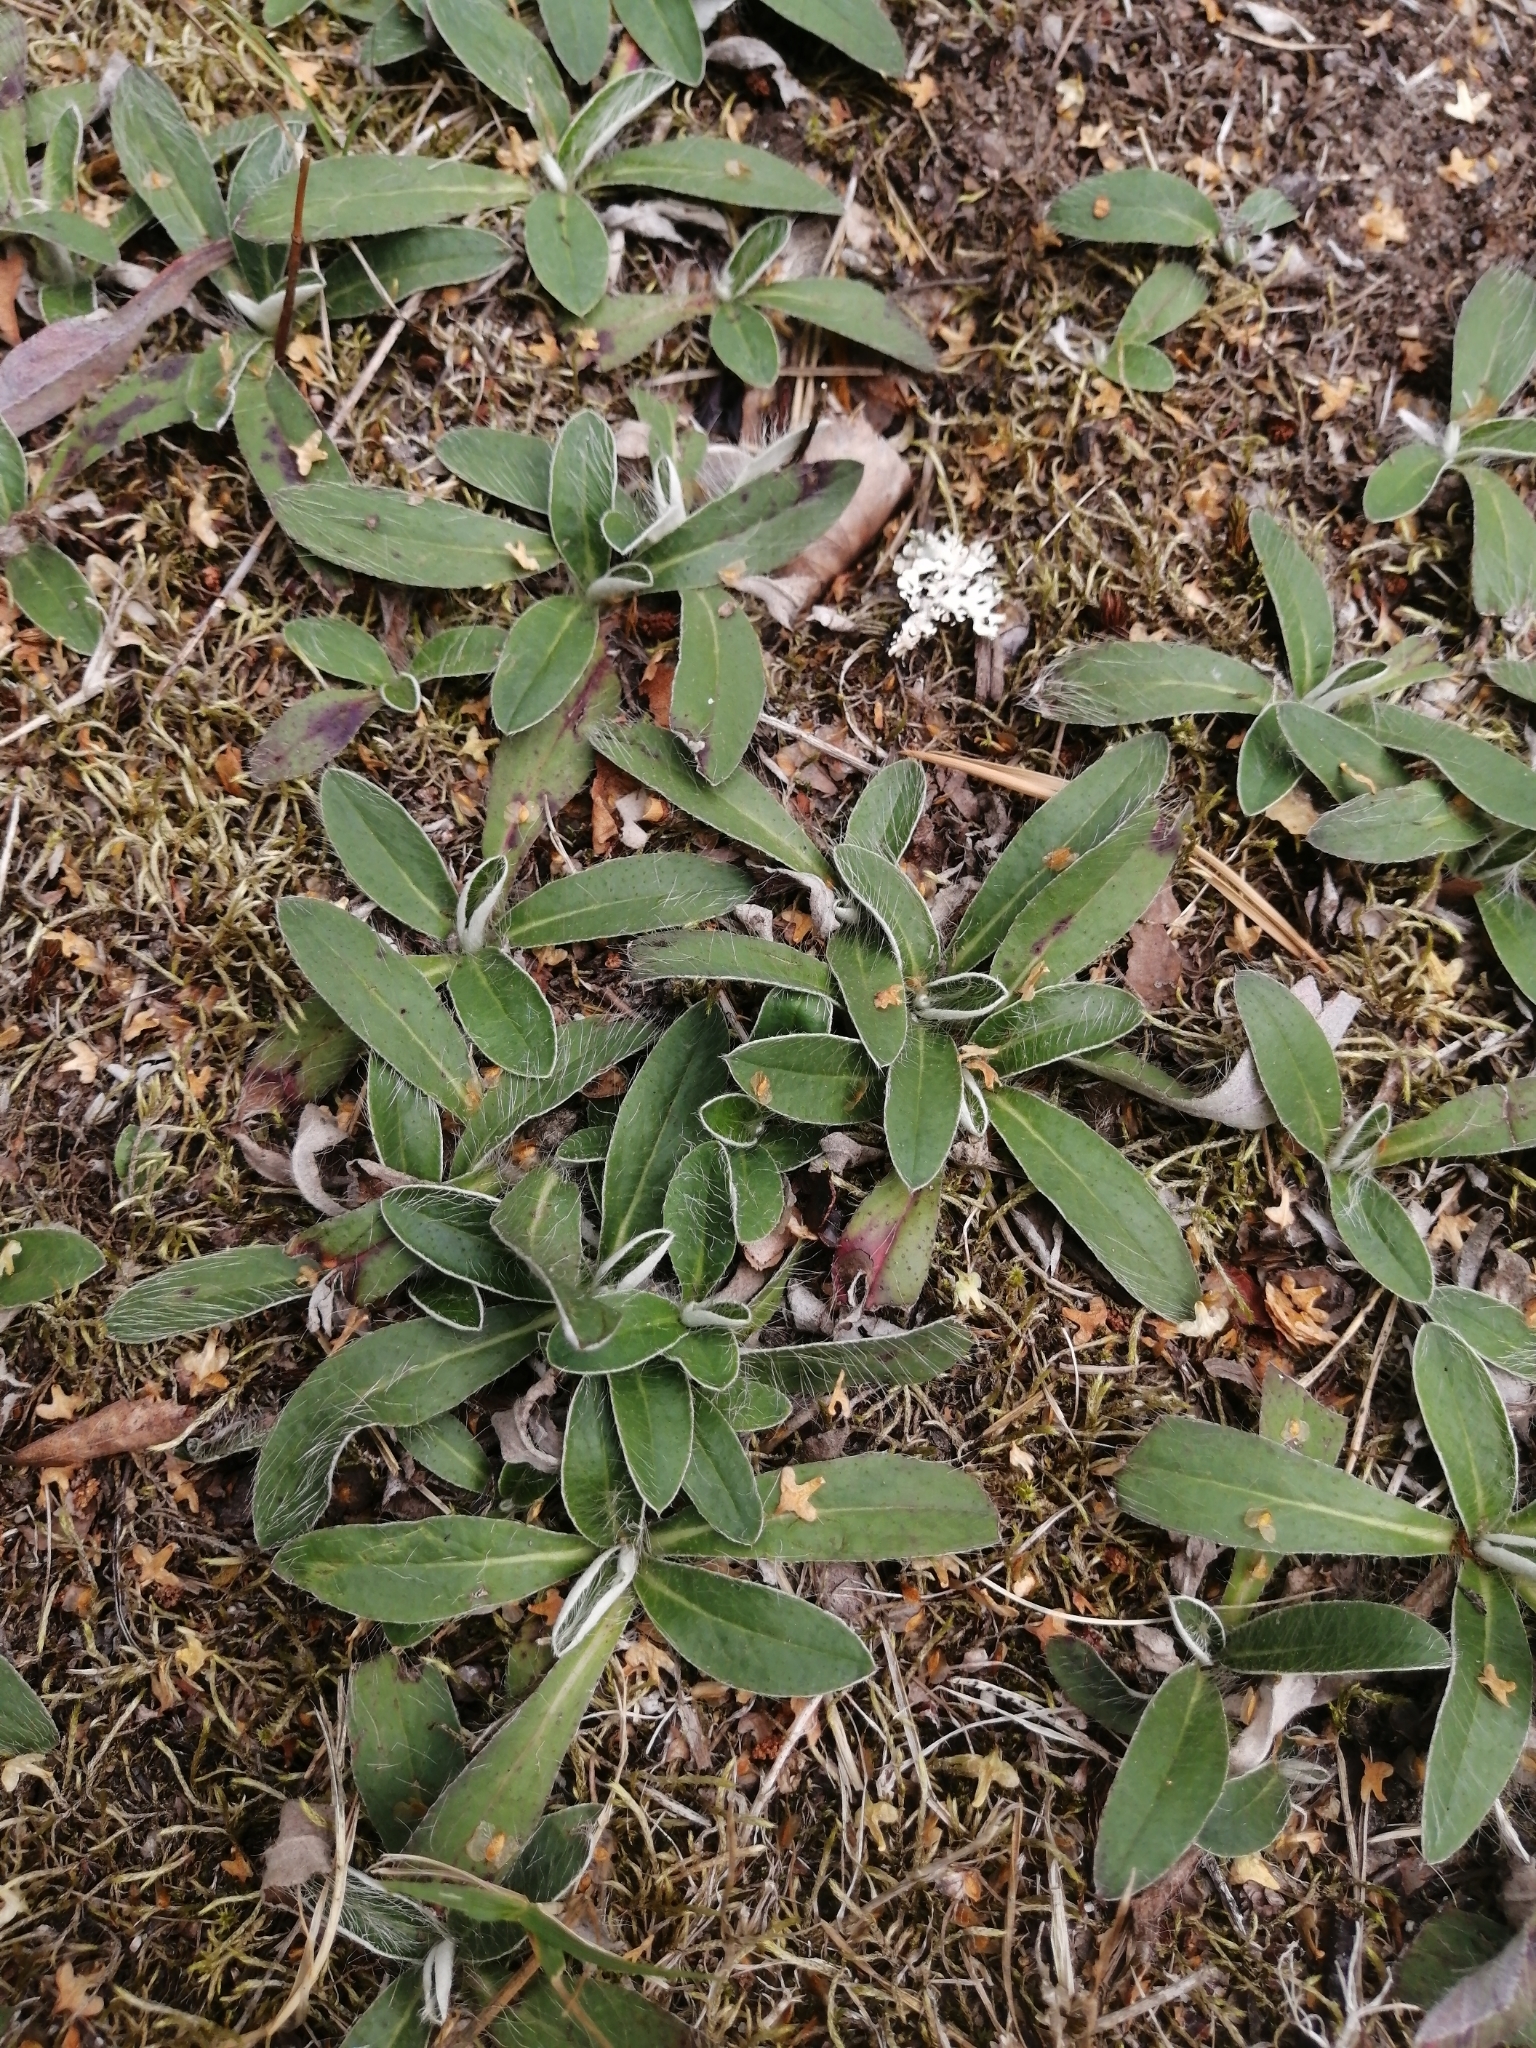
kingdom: Plantae
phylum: Tracheophyta
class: Magnoliopsida
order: Asterales
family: Asteraceae
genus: Pilosella
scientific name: Pilosella officinarum
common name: Mouse-ear hawkweed
